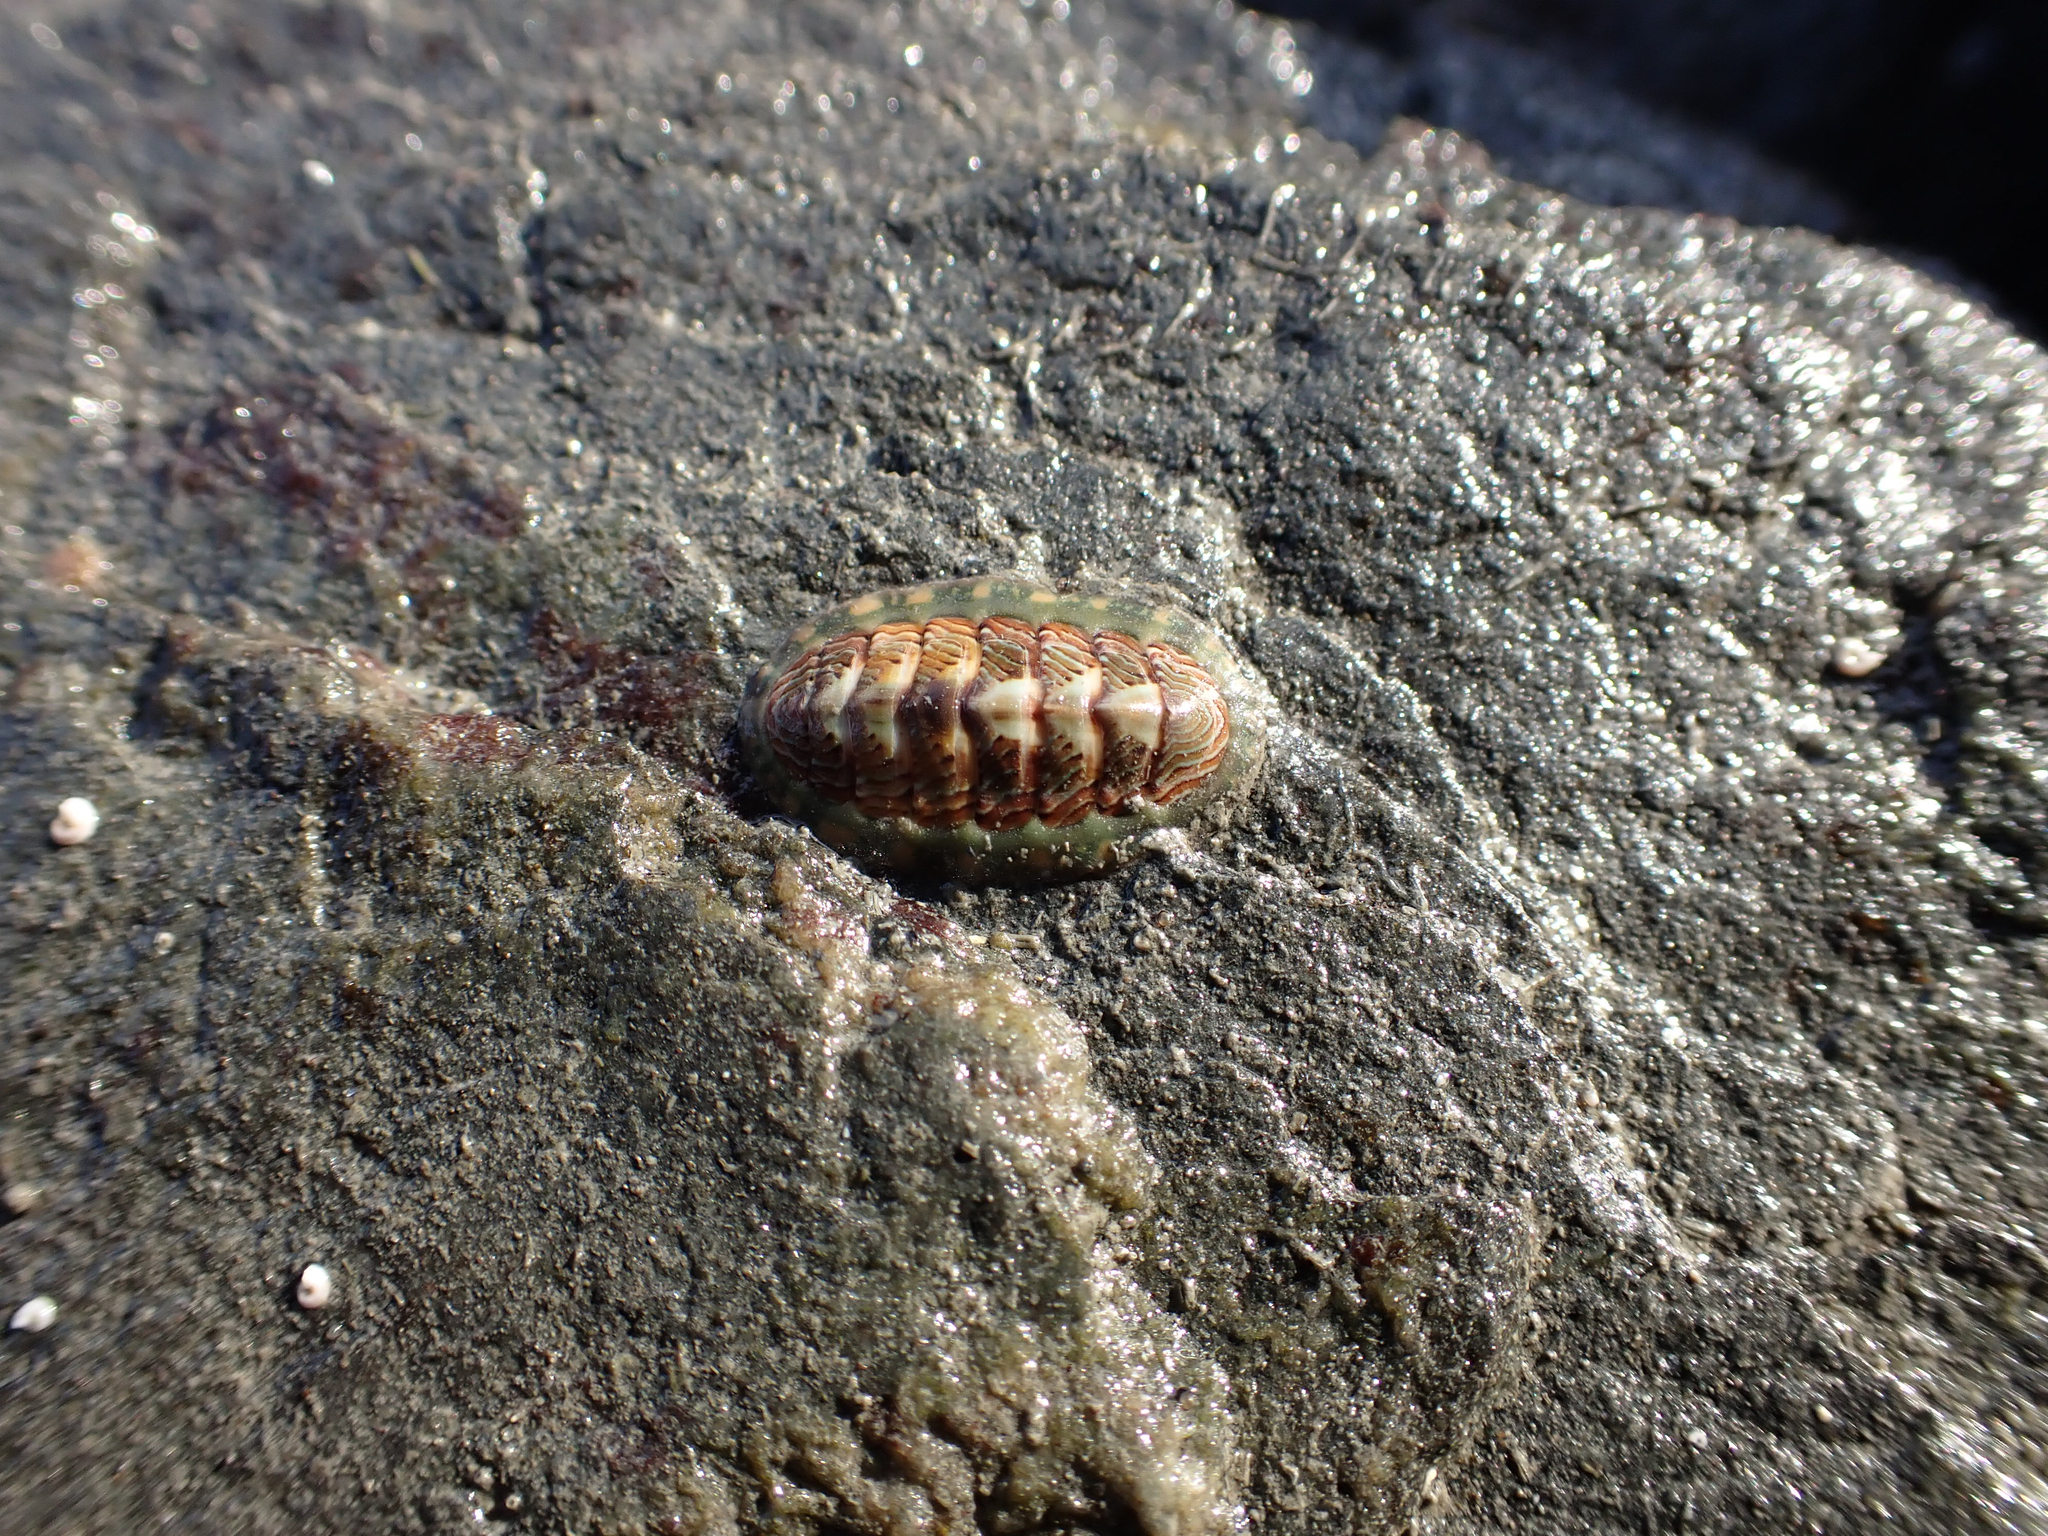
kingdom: Animalia
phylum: Mollusca
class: Polyplacophora
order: Chitonida
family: Tonicellidae
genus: Tonicella
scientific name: Tonicella lineata
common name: Lined chiton
